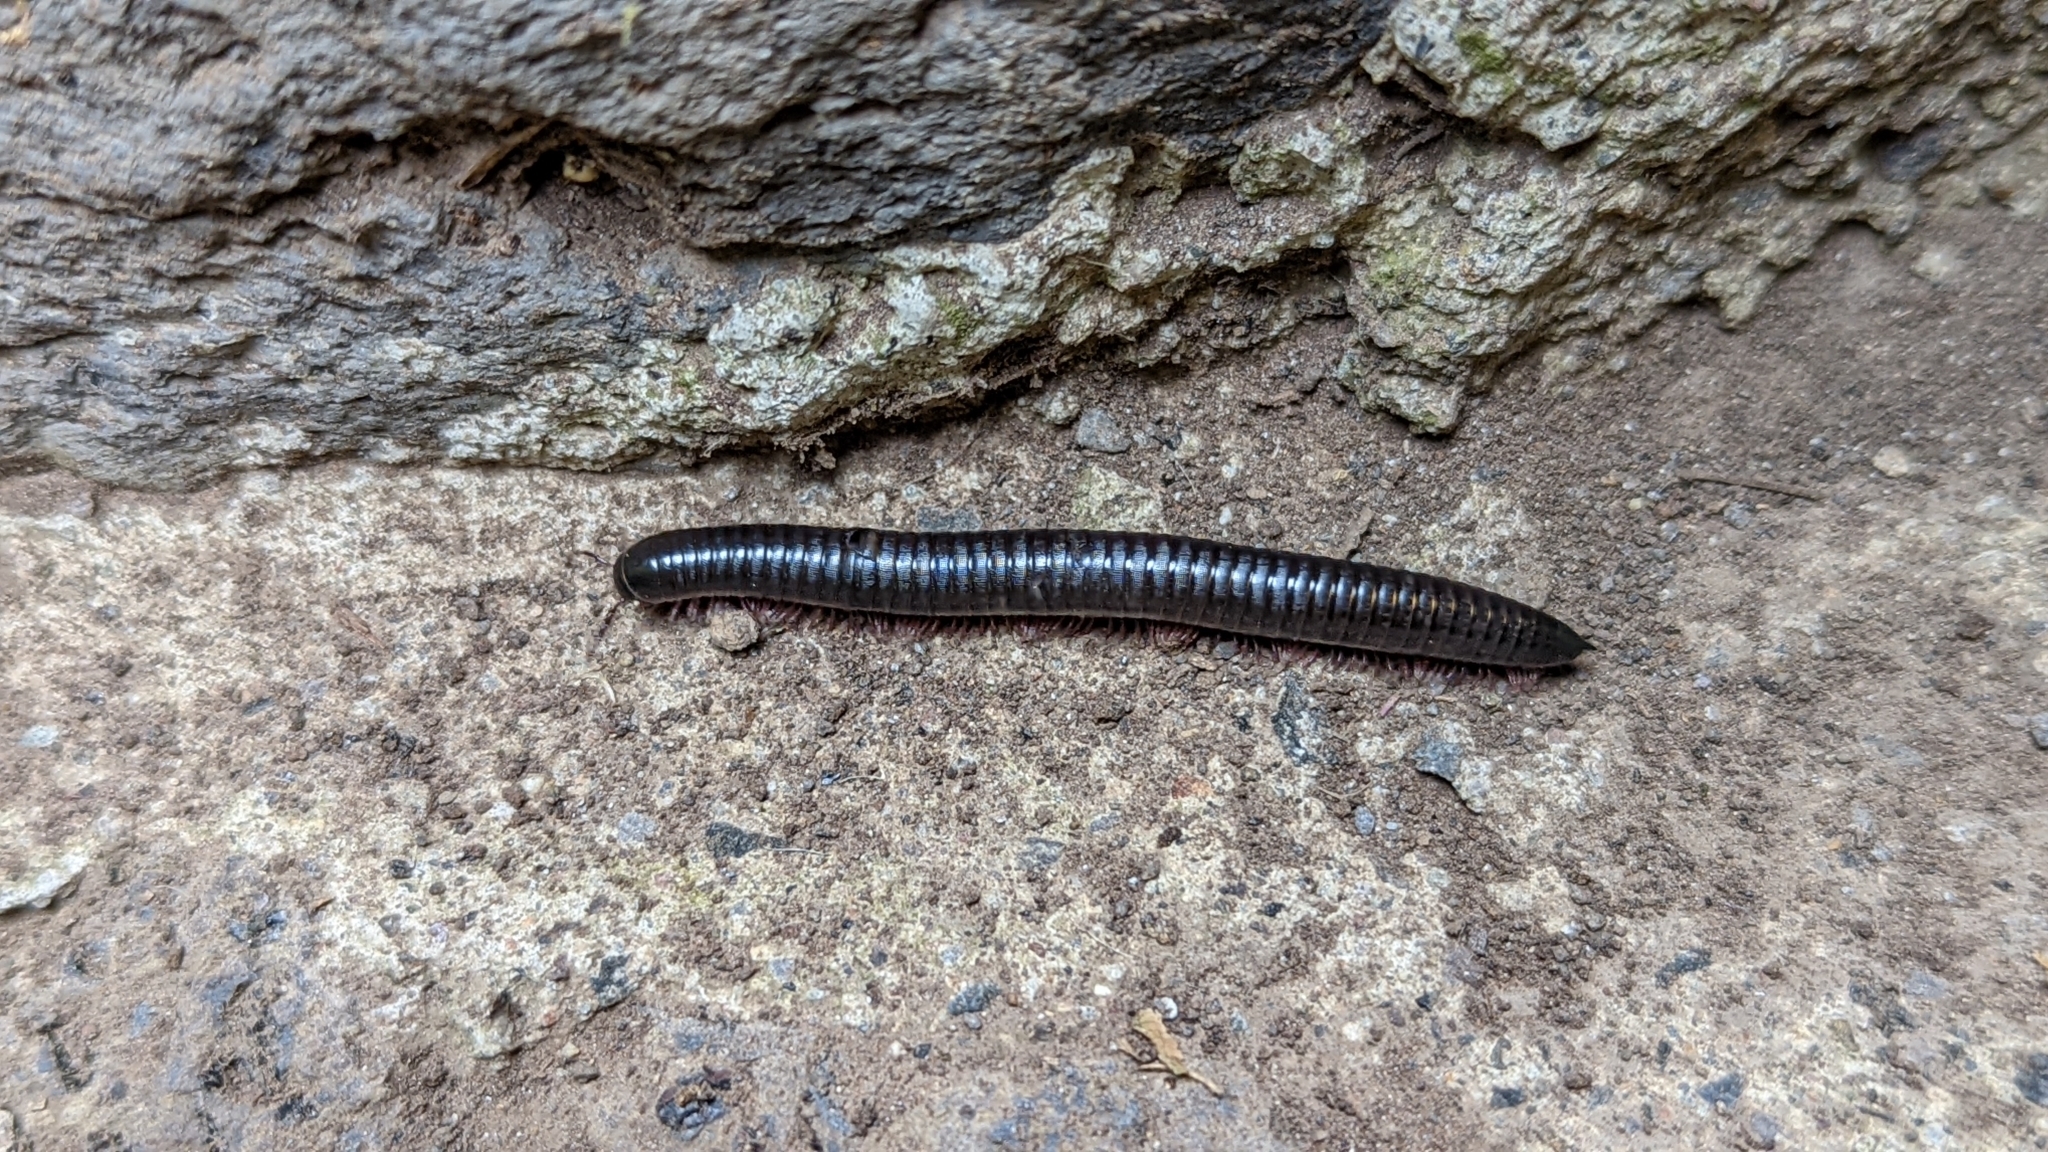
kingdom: Animalia
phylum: Arthropoda
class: Diplopoda
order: Julida
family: Julidae
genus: Ommatoiulus
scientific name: Ommatoiulus moreleti
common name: Portuguese millipede
